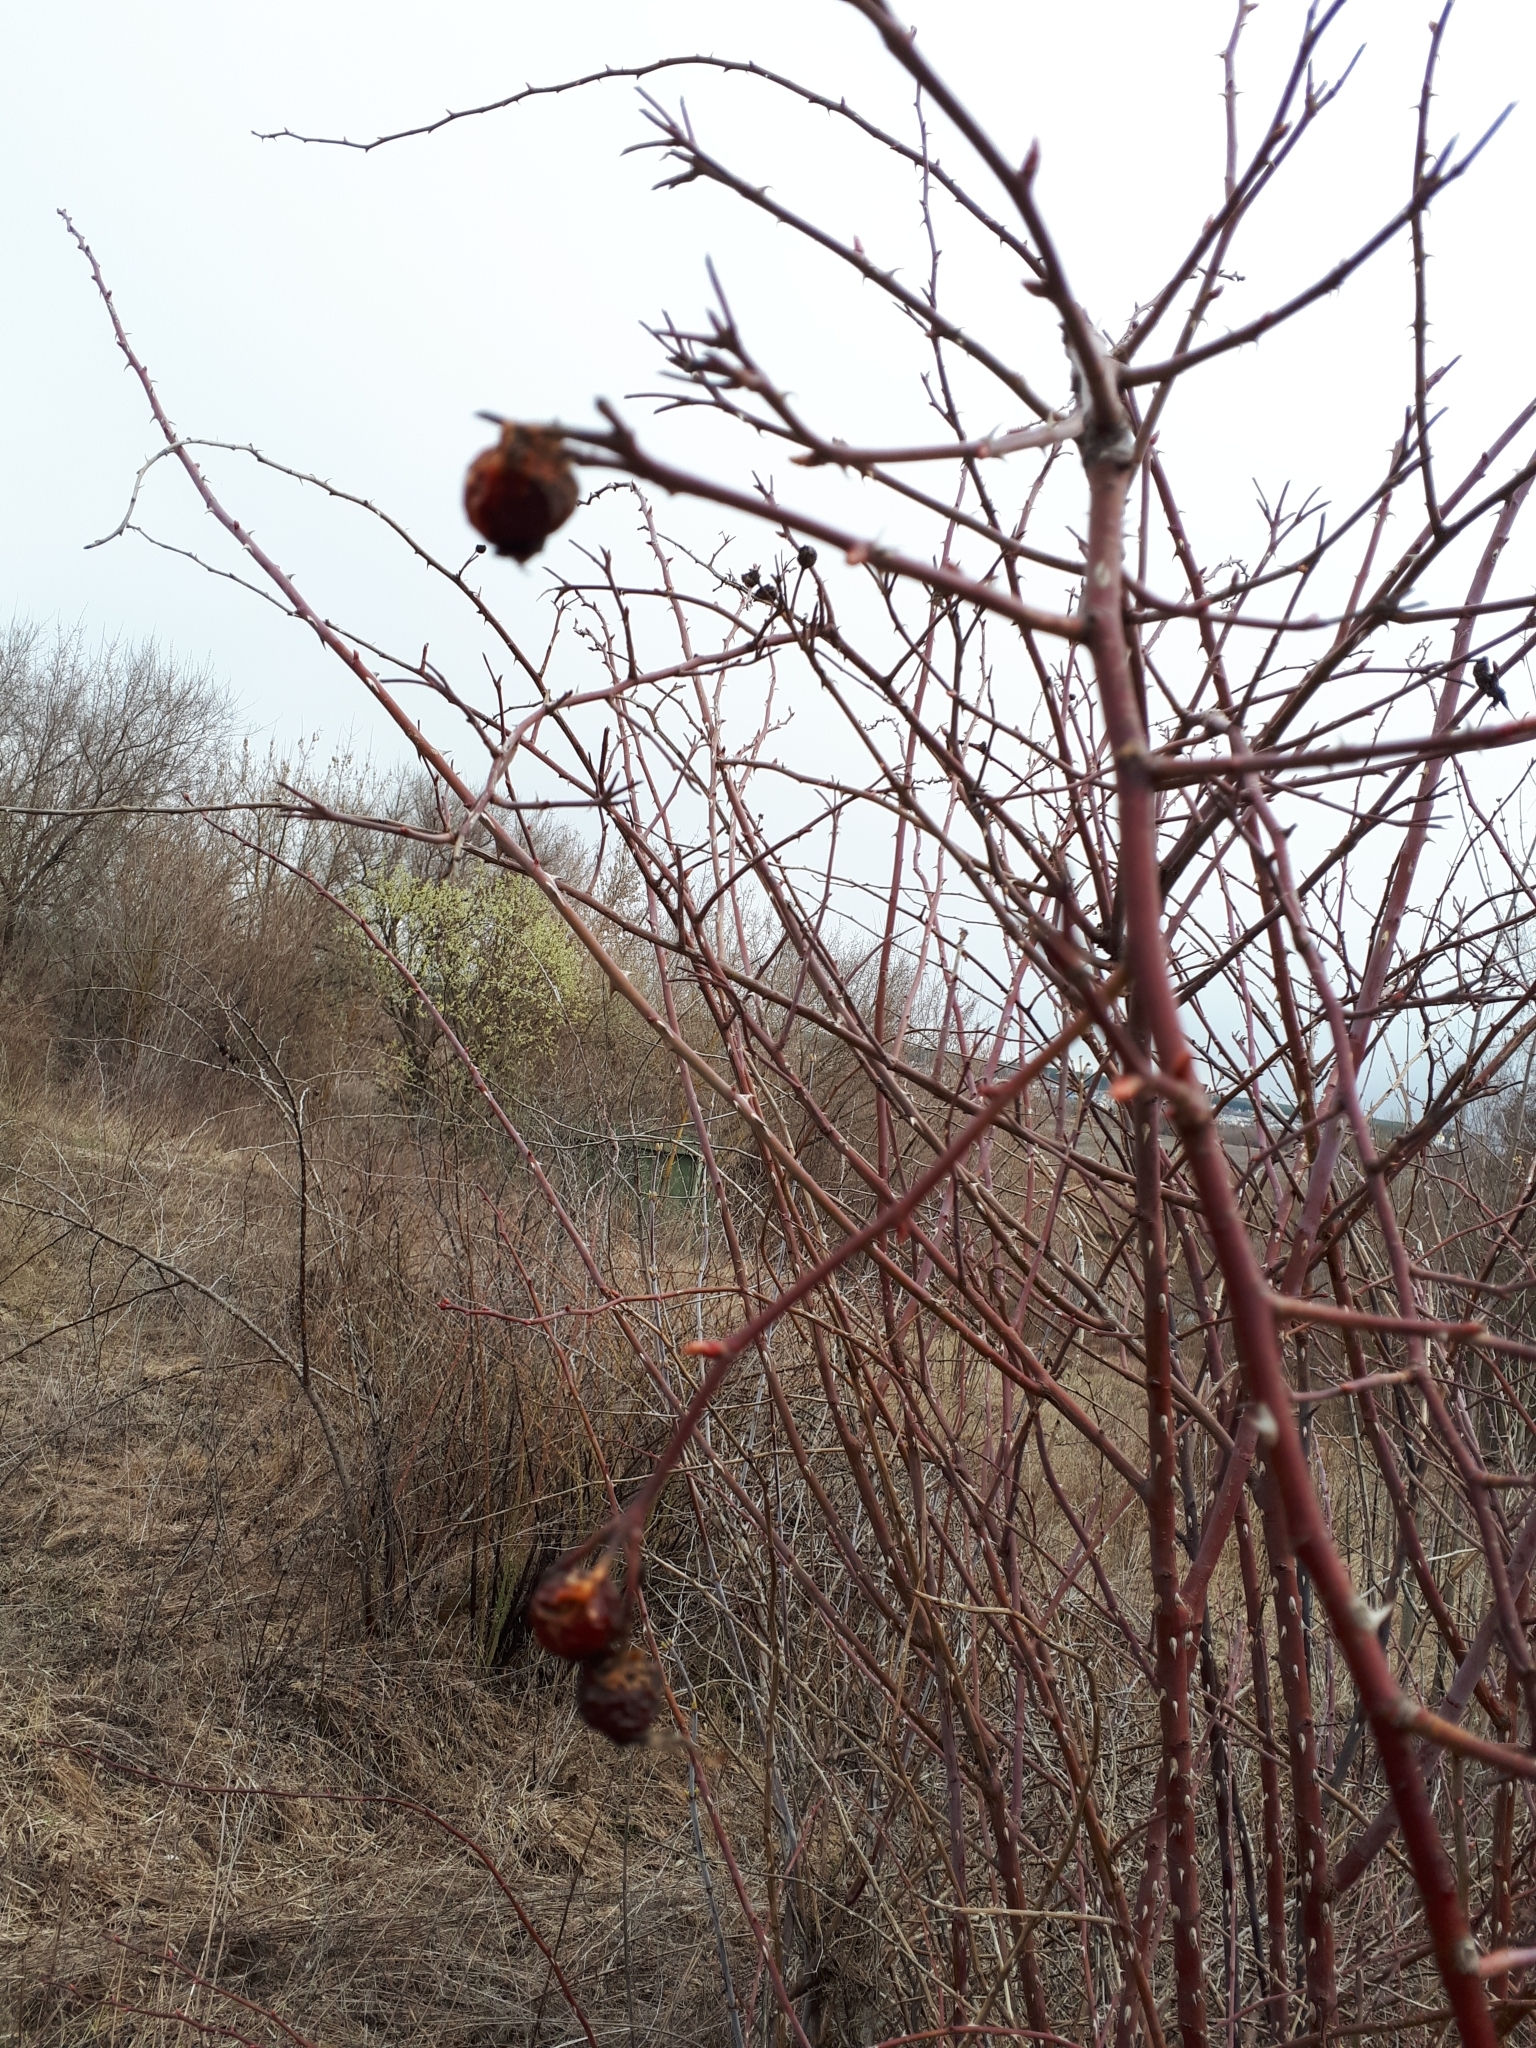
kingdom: Plantae
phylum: Tracheophyta
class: Magnoliopsida
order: Rosales
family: Rosaceae
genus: Rosa
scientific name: Rosa
